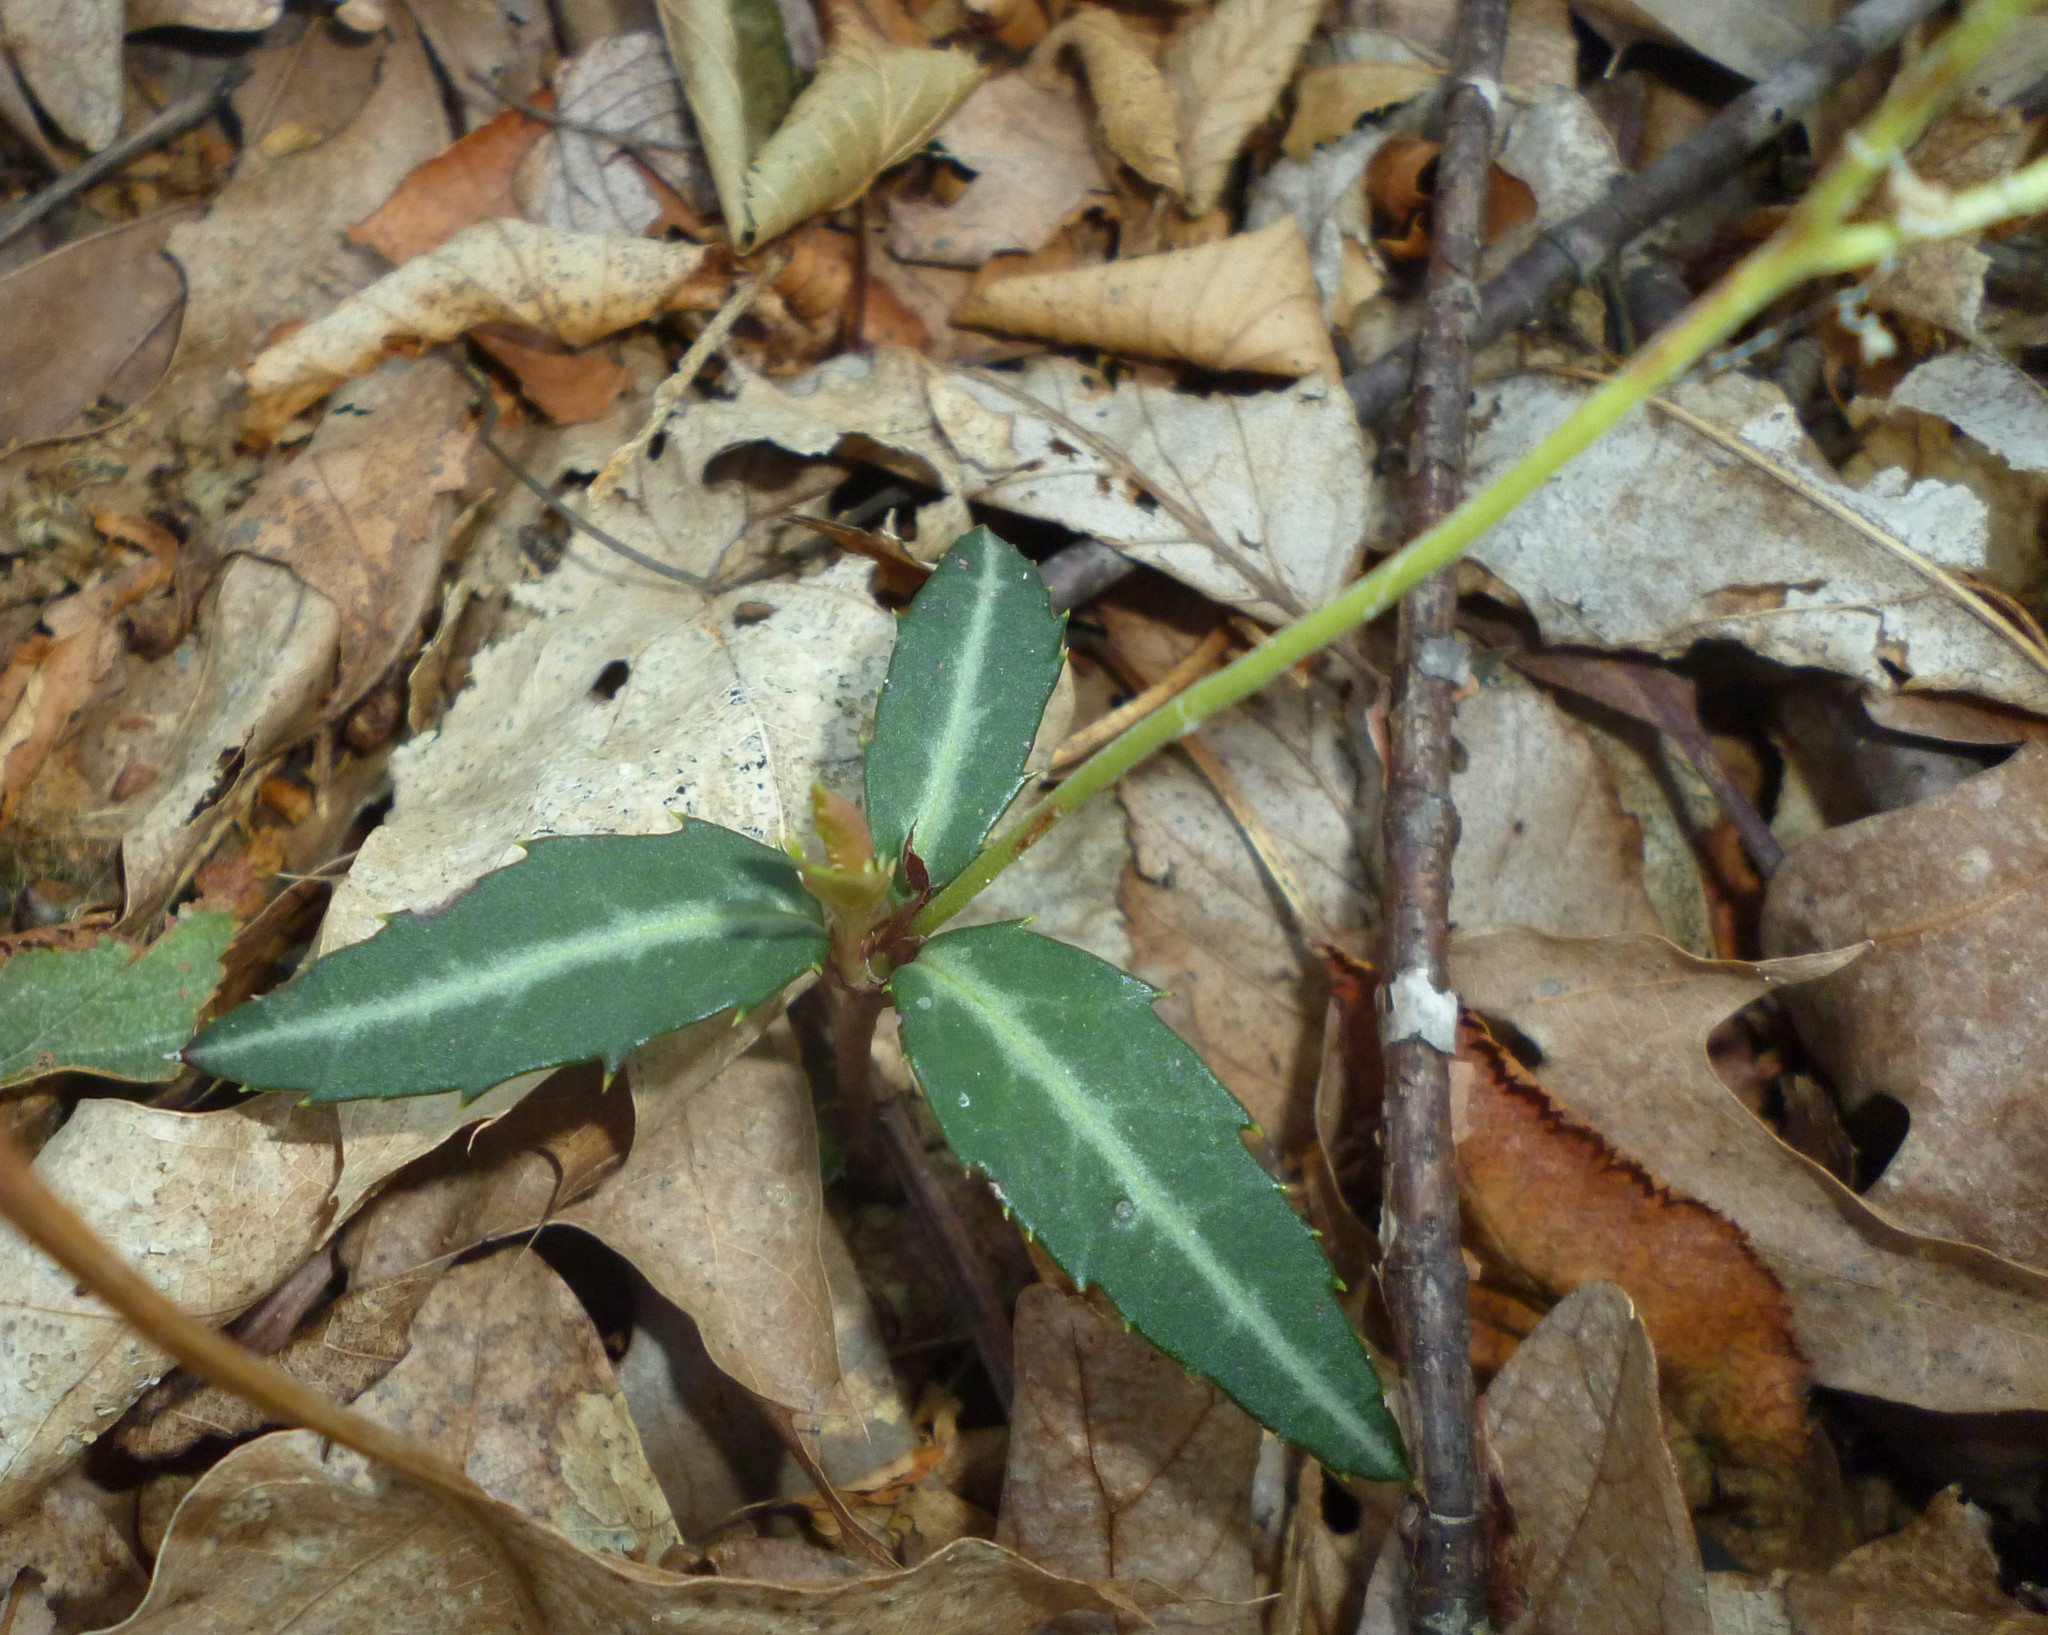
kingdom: Plantae
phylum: Tracheophyta
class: Magnoliopsida
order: Ericales
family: Ericaceae
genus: Chimaphila
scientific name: Chimaphila maculata
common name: Spotted pipsissewa
